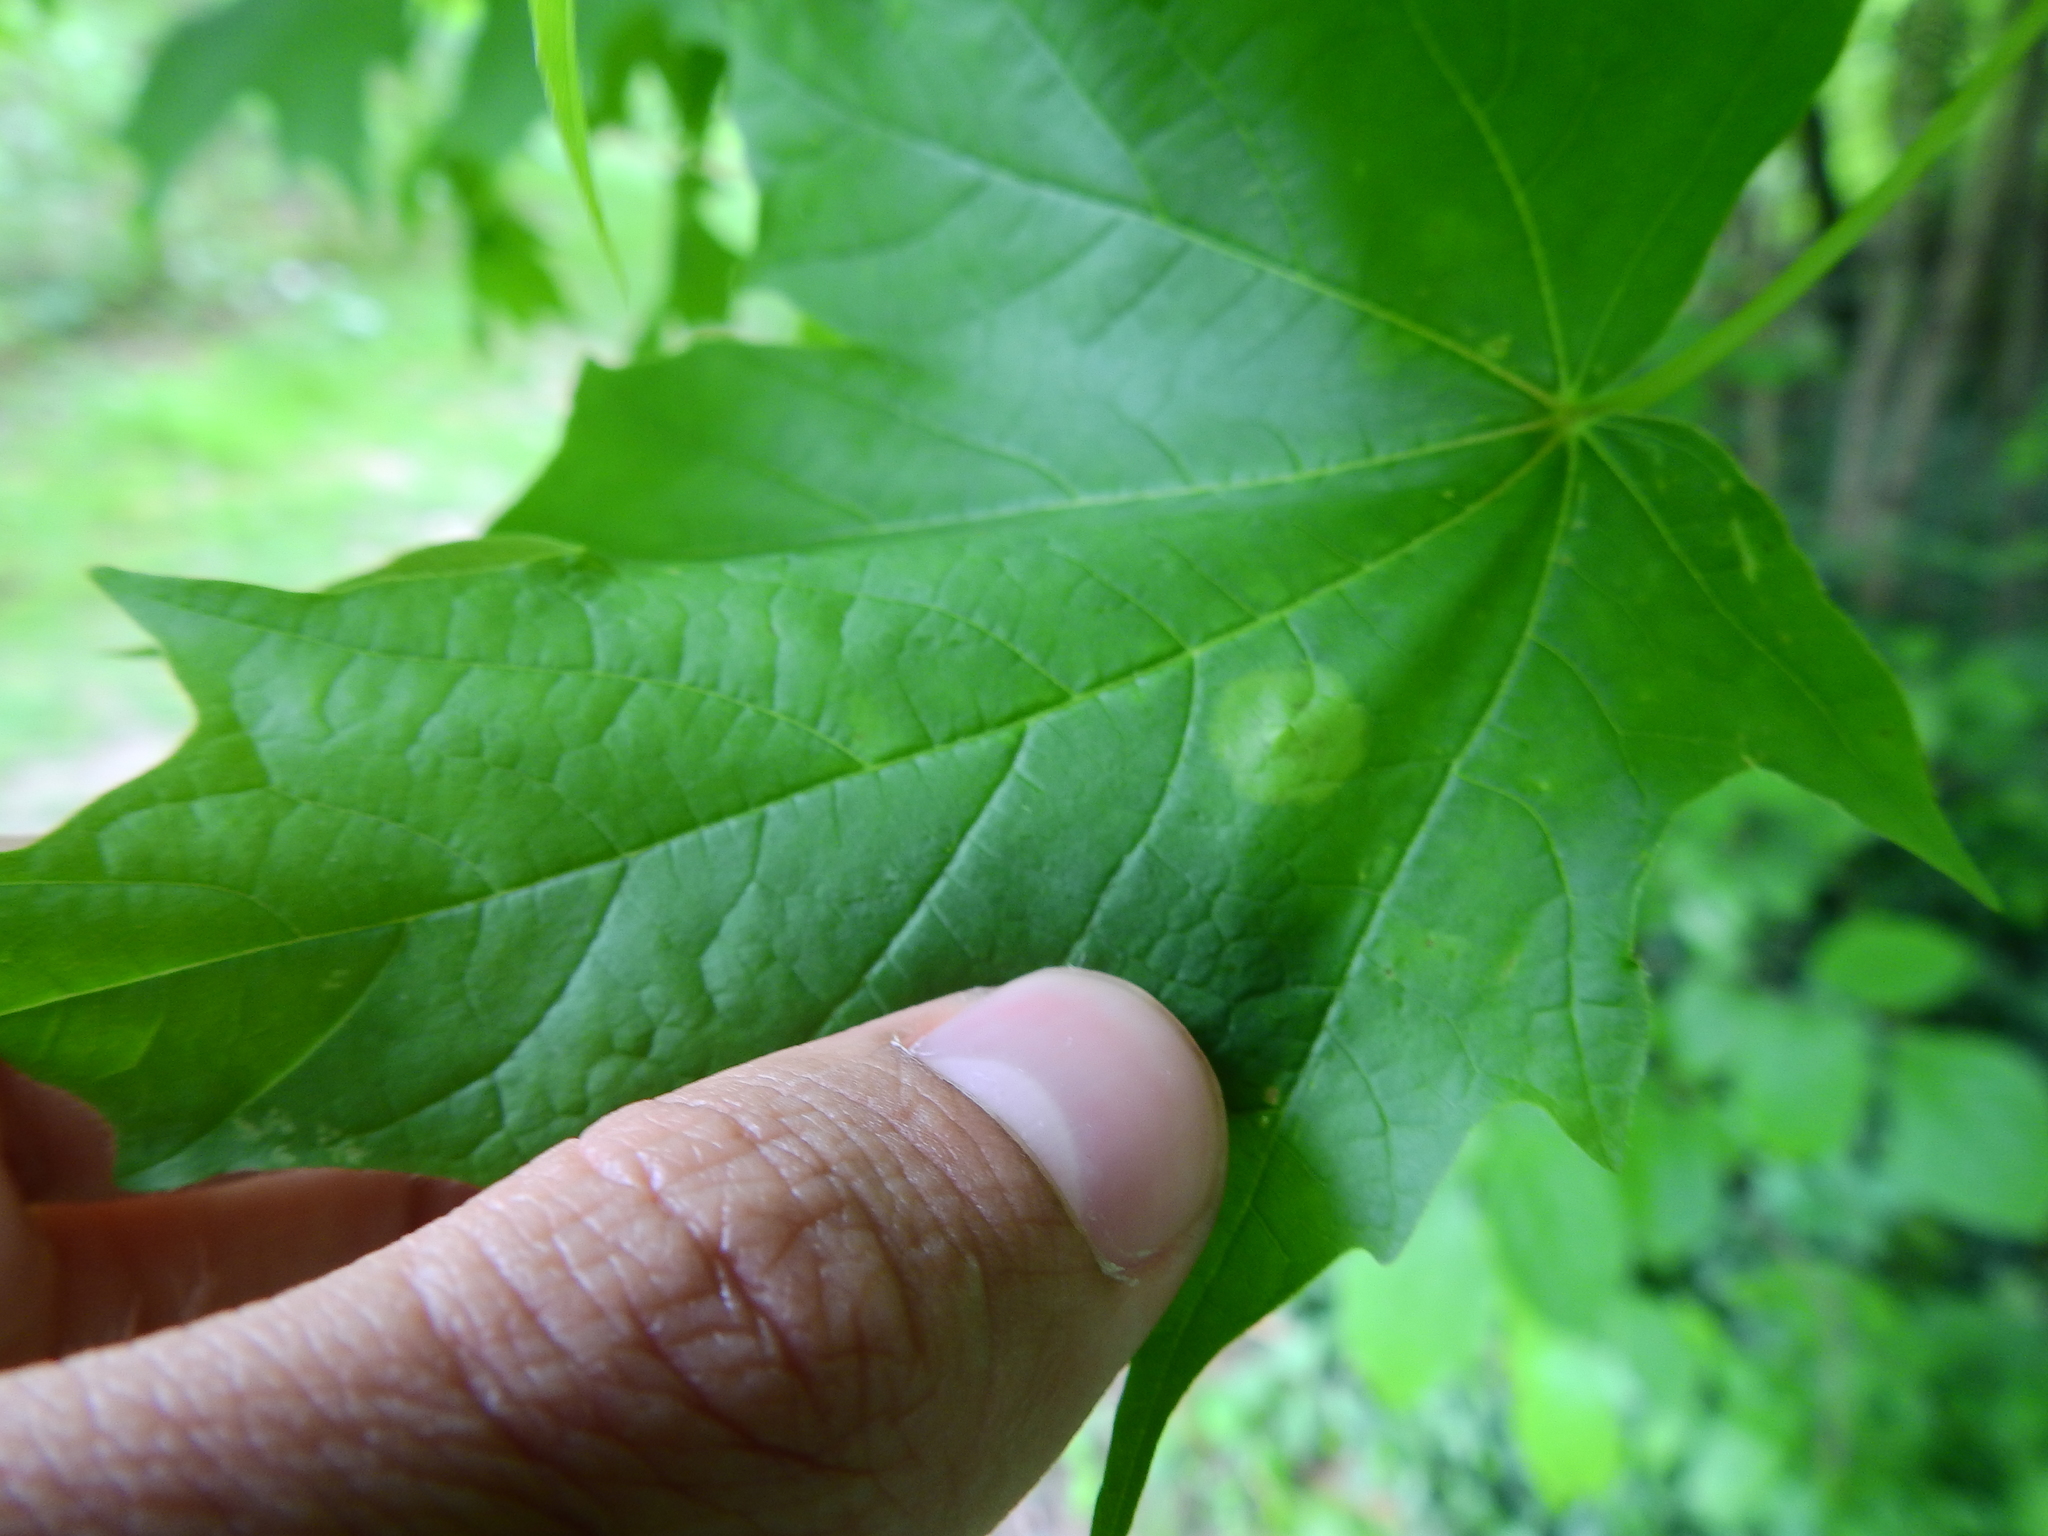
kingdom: Animalia
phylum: Arthropoda
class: Insecta
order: Diptera
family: Cecidomyiidae
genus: Acericecis
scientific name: Acericecis ocellaris
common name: Ocellate gall midge
